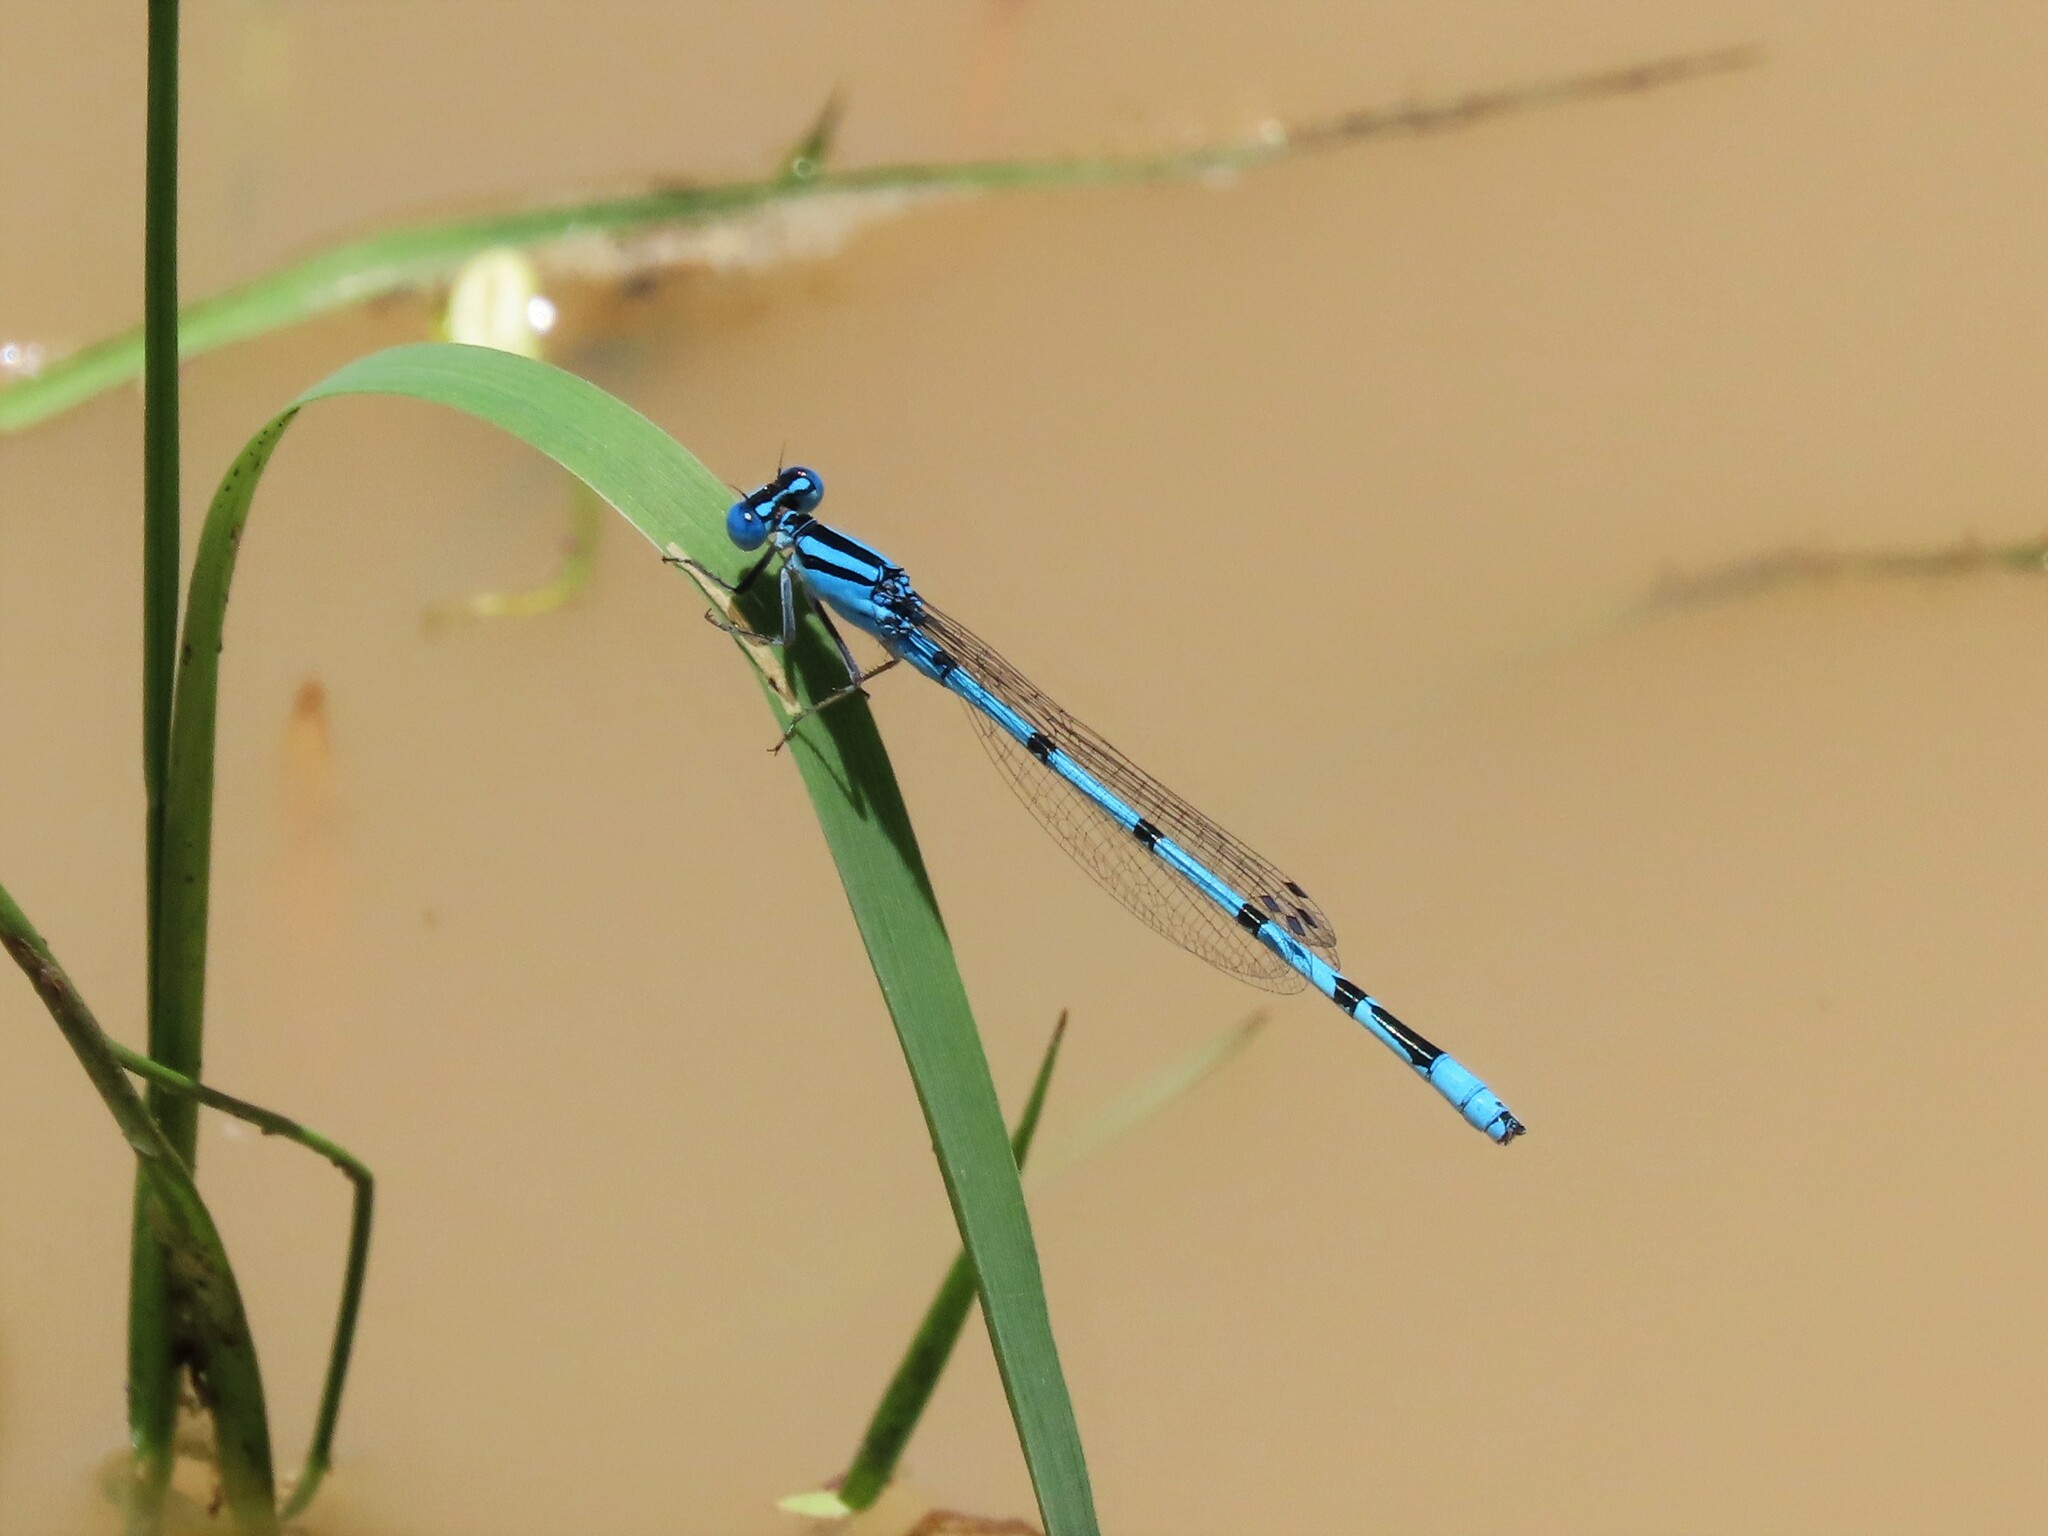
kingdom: Animalia
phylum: Arthropoda
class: Insecta
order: Odonata
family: Coenagrionidae
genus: Enallagma
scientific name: Enallagma doubledayi
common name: Atlantic bluet
